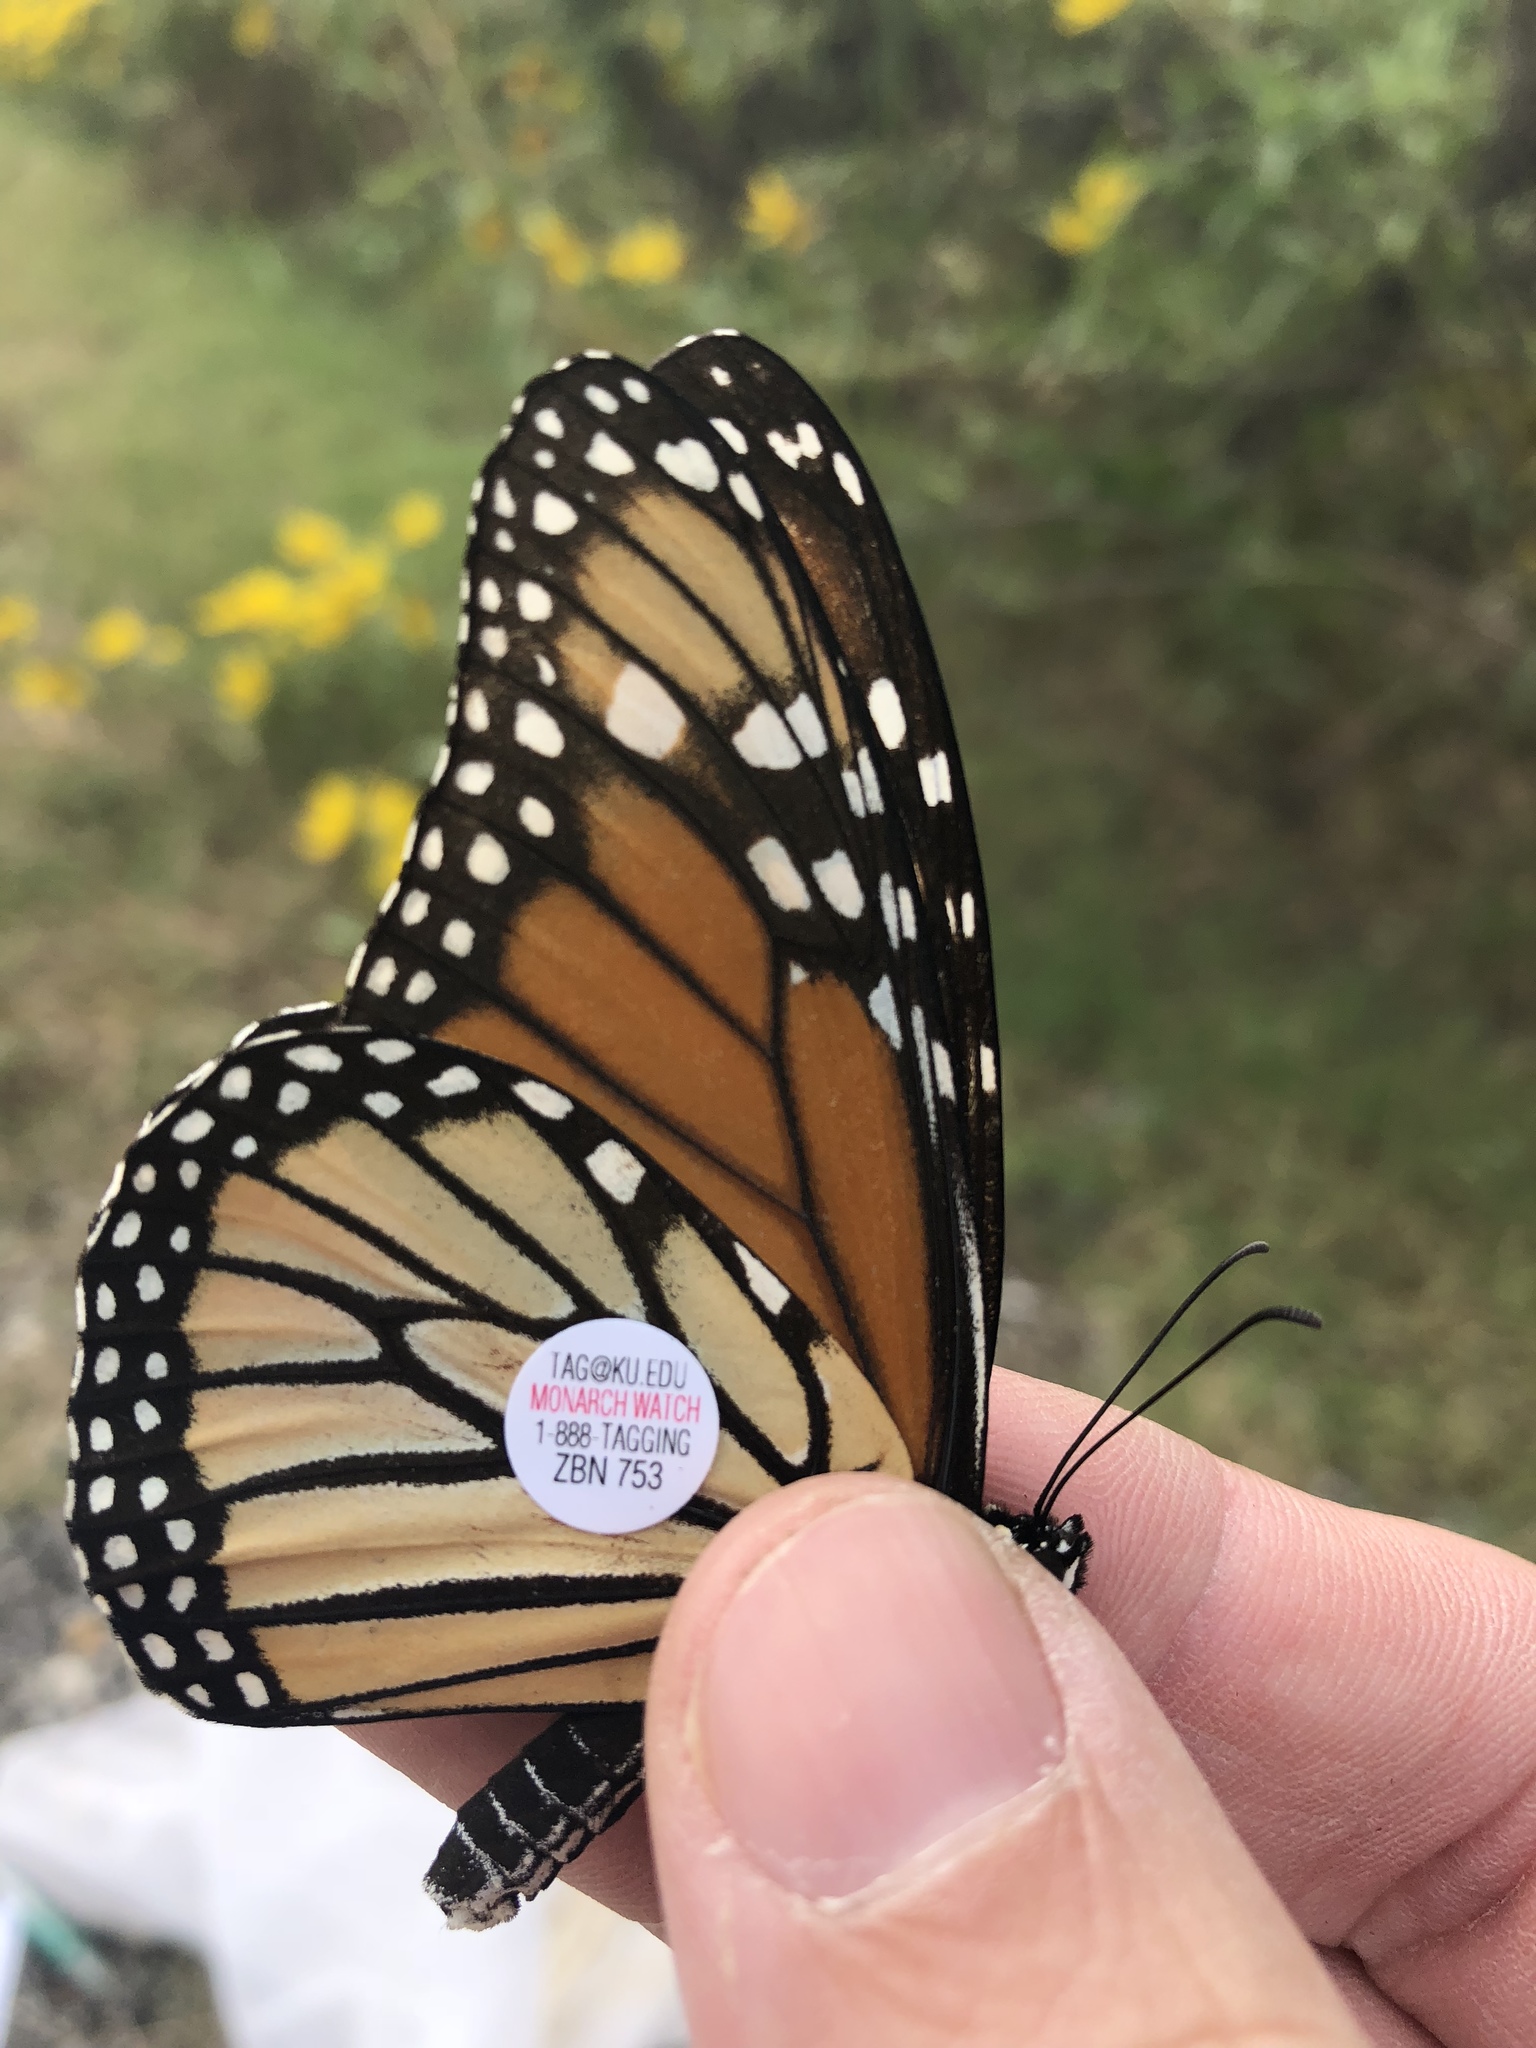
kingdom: Animalia
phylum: Arthropoda
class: Insecta
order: Lepidoptera
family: Nymphalidae
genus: Danaus
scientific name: Danaus plexippus
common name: Monarch
